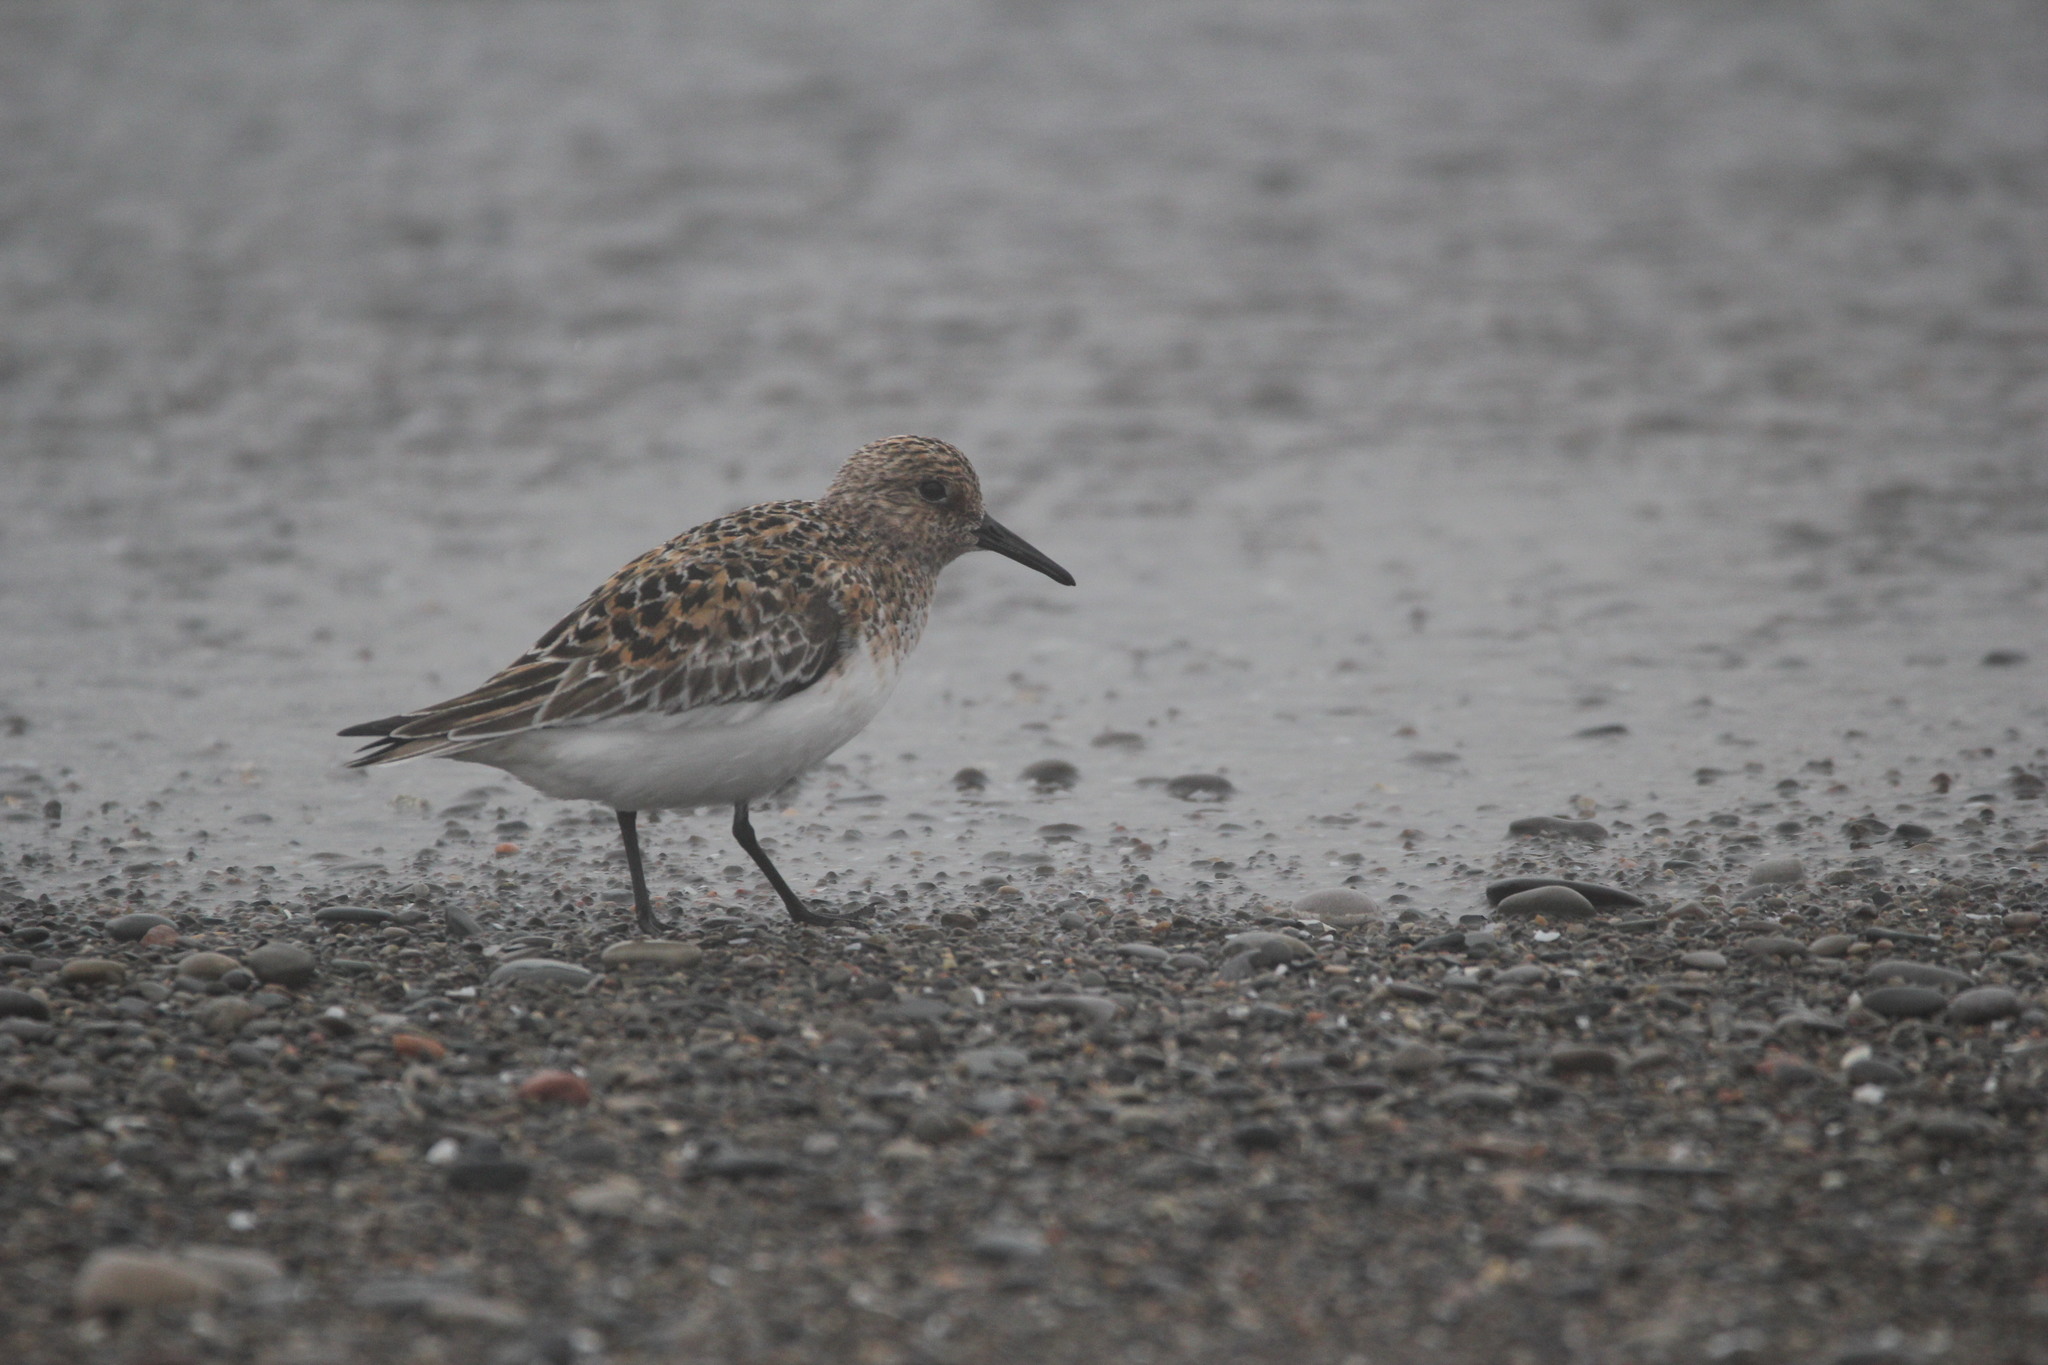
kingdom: Animalia
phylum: Chordata
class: Aves
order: Charadriiformes
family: Scolopacidae
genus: Calidris
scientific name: Calidris alba
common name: Sanderling
